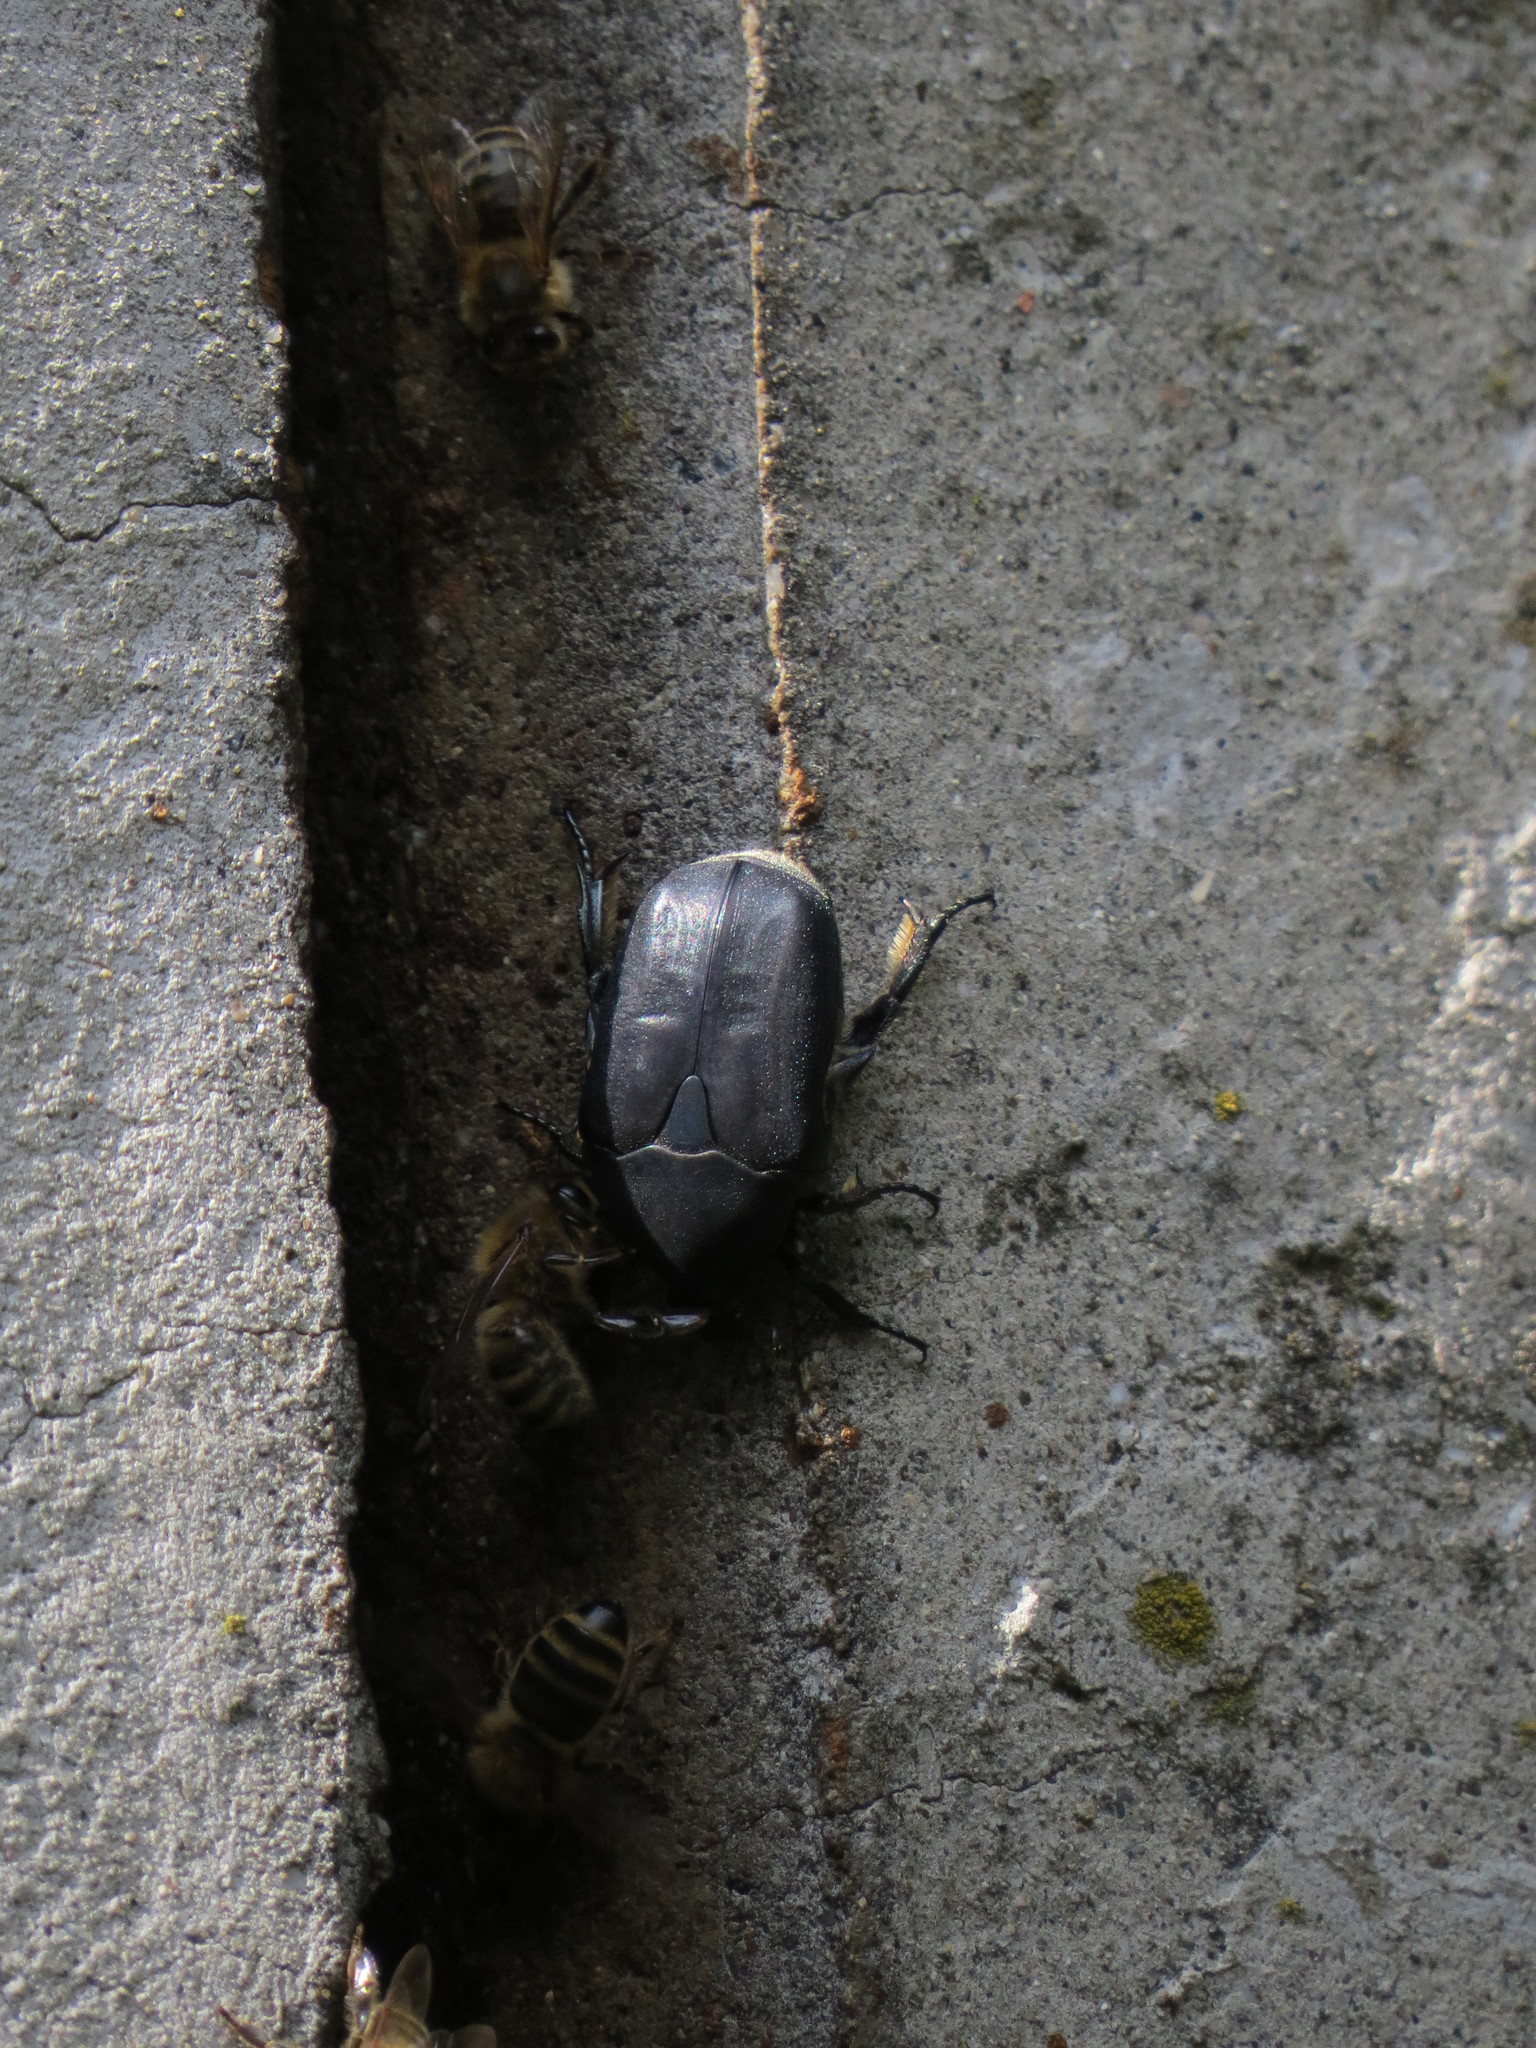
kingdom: Animalia
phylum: Arthropoda
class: Insecta
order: Coleoptera
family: Scarabaeidae
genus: Protaetia
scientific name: Protaetia opaca
